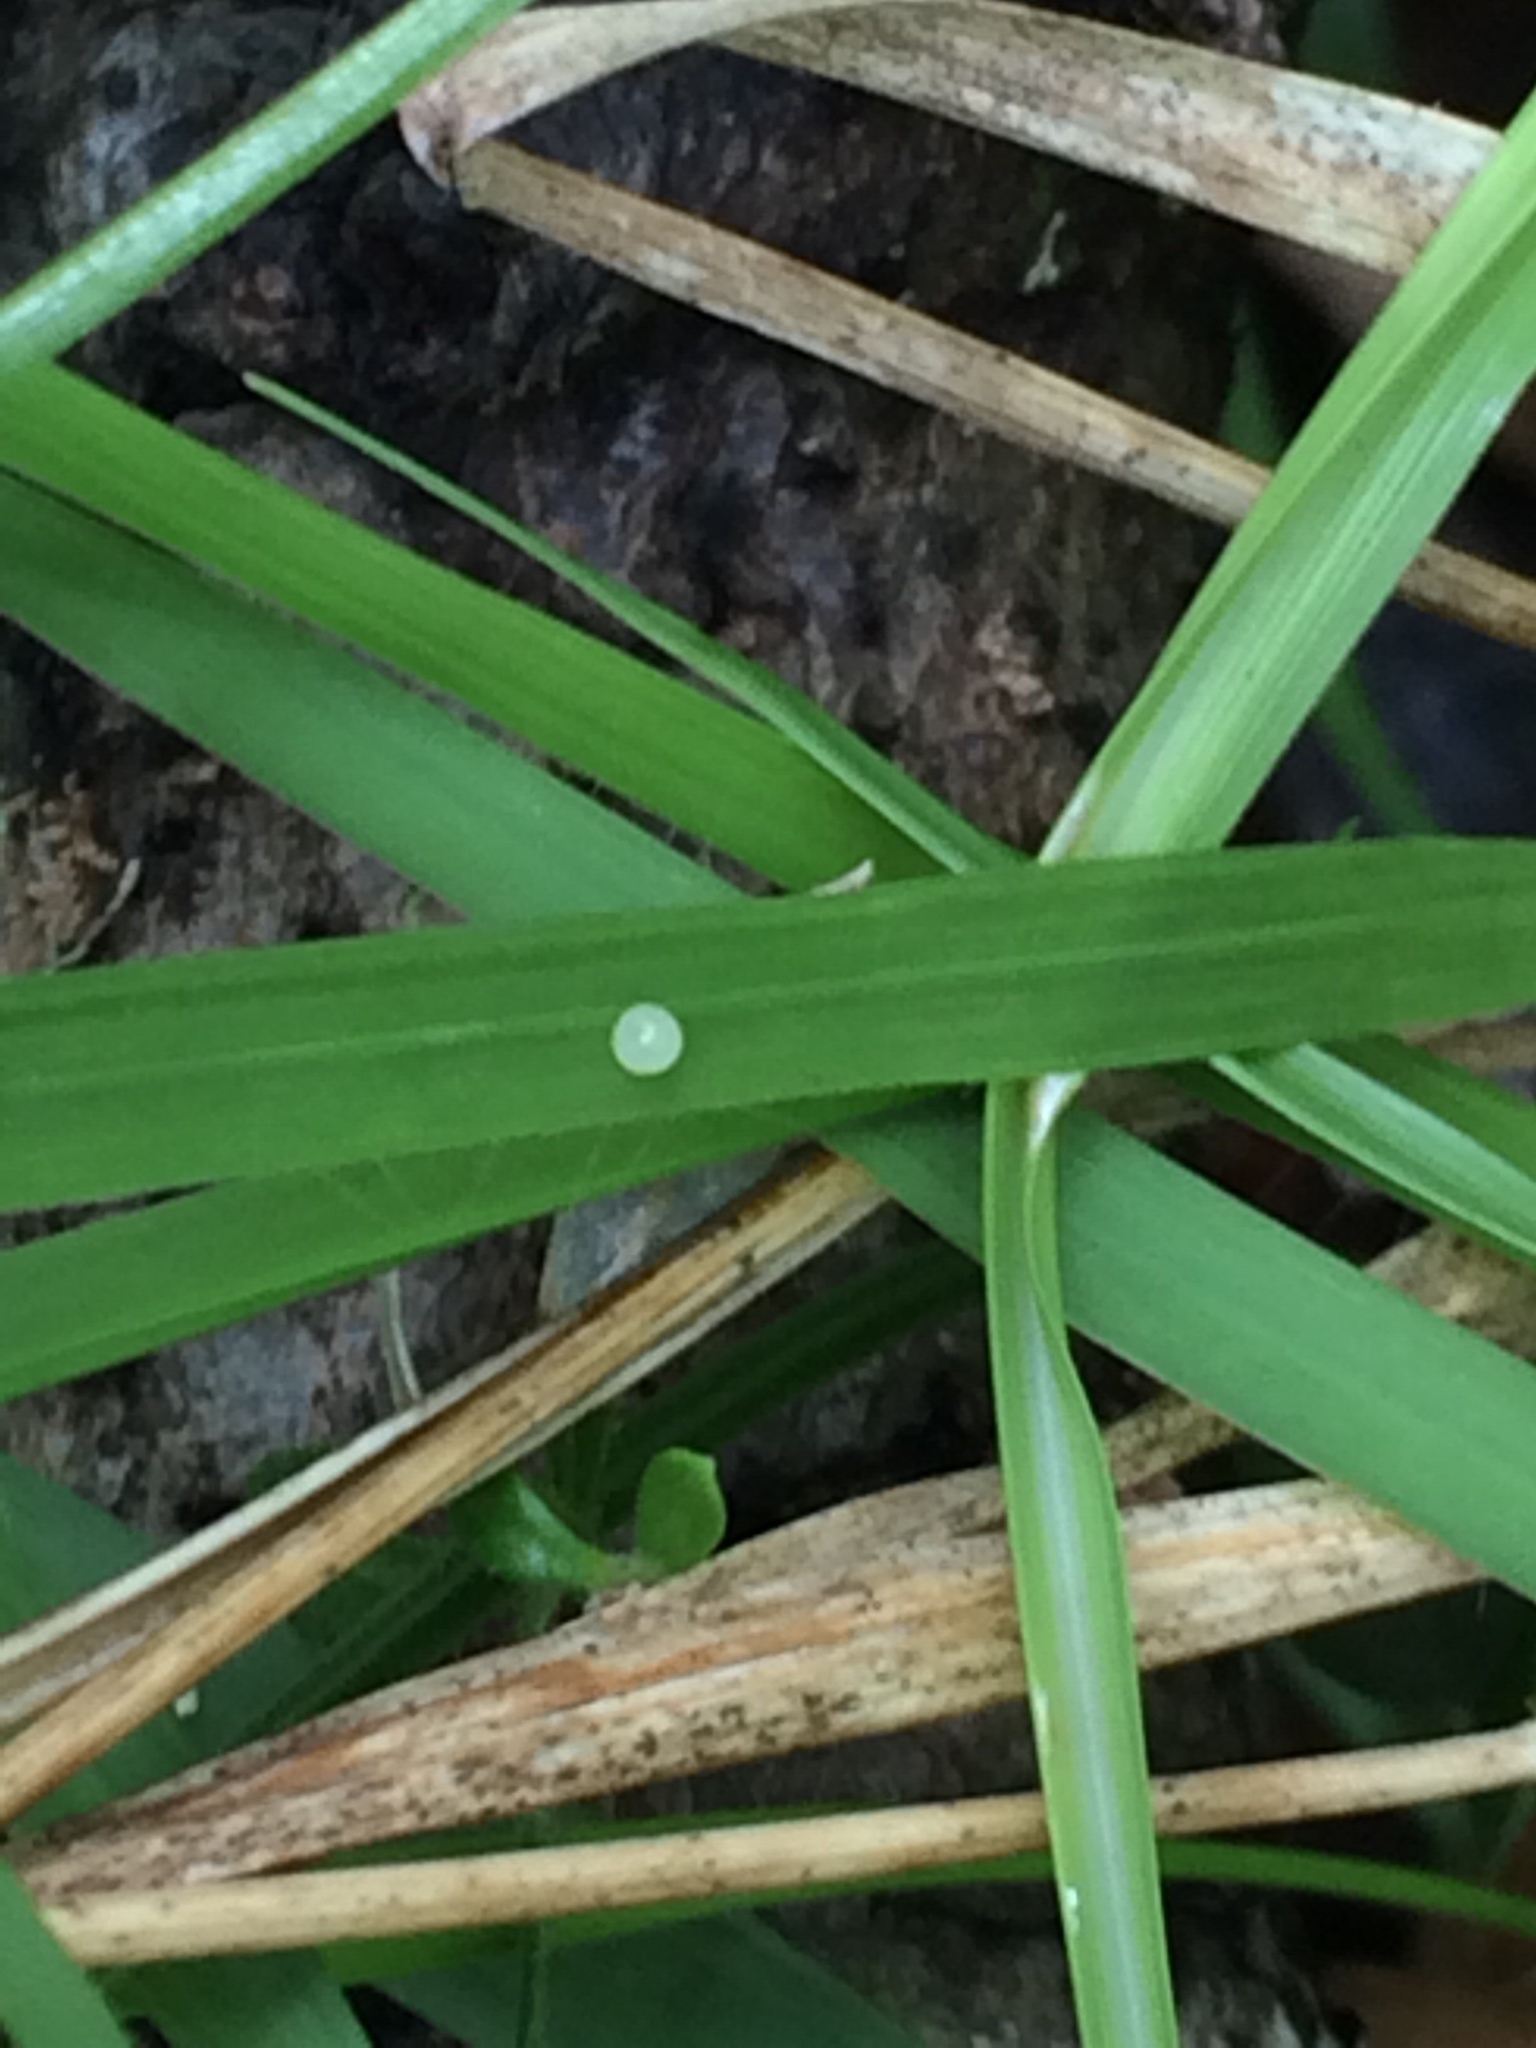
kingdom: Animalia
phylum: Arthropoda
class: Insecta
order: Lepidoptera
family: Nymphalidae
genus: Hermeuptychia
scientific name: Hermeuptychia
